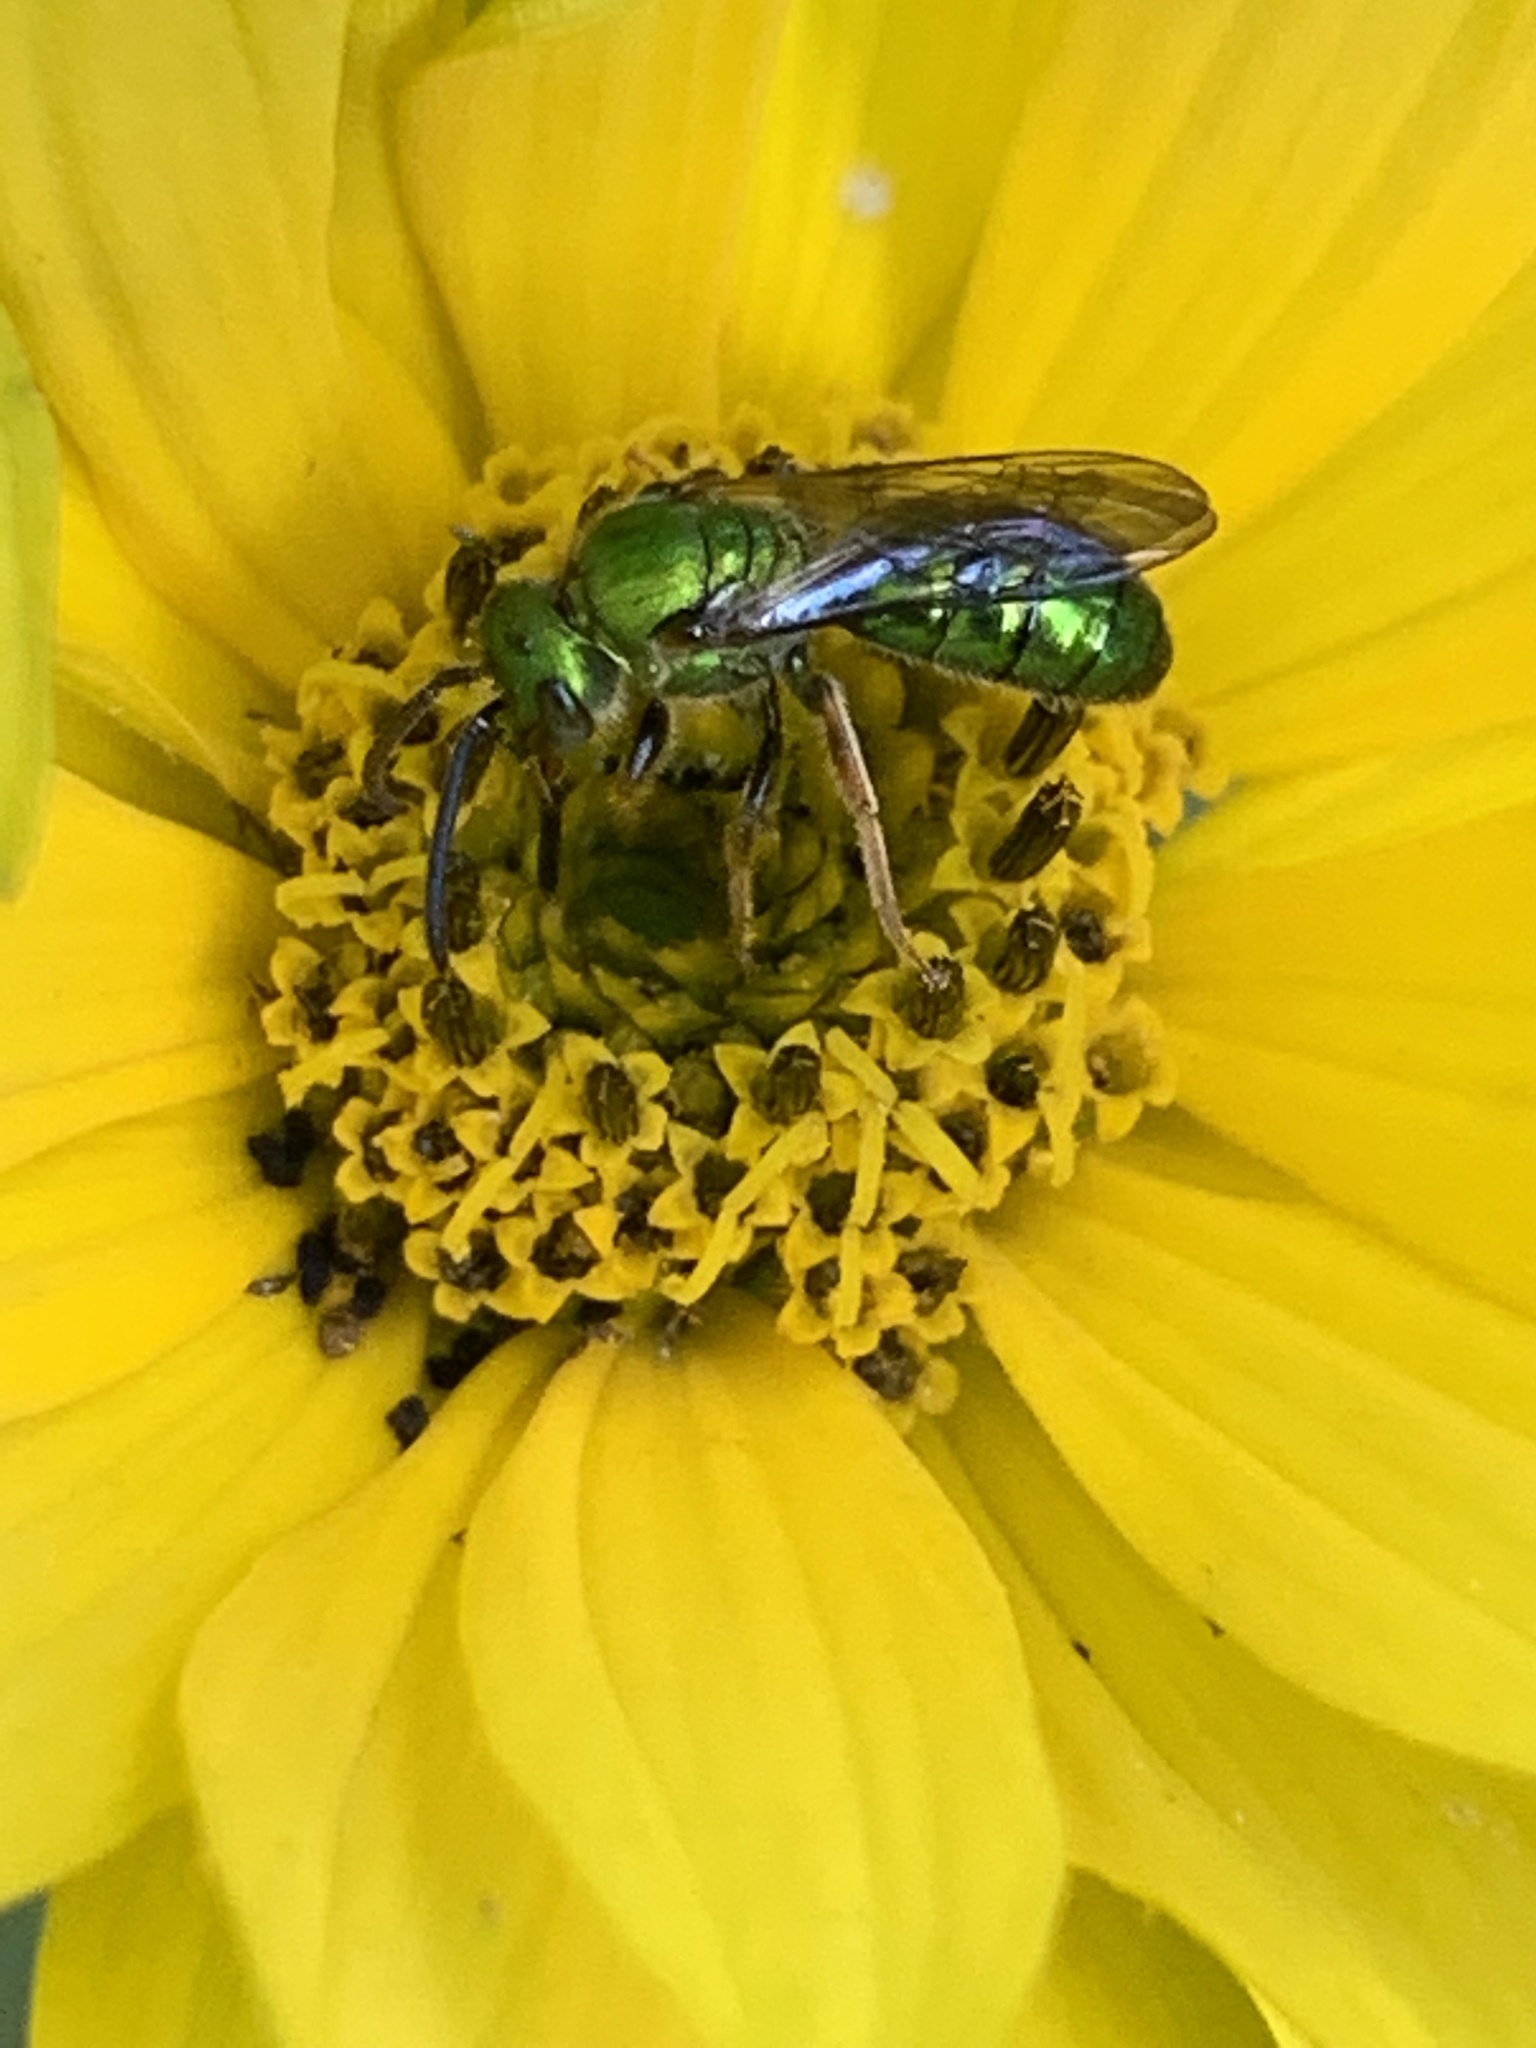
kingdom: Animalia
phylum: Arthropoda
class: Insecta
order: Hymenoptera
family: Halictidae
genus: Augochlora
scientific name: Augochlora pura
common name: Pure green sweat bee
